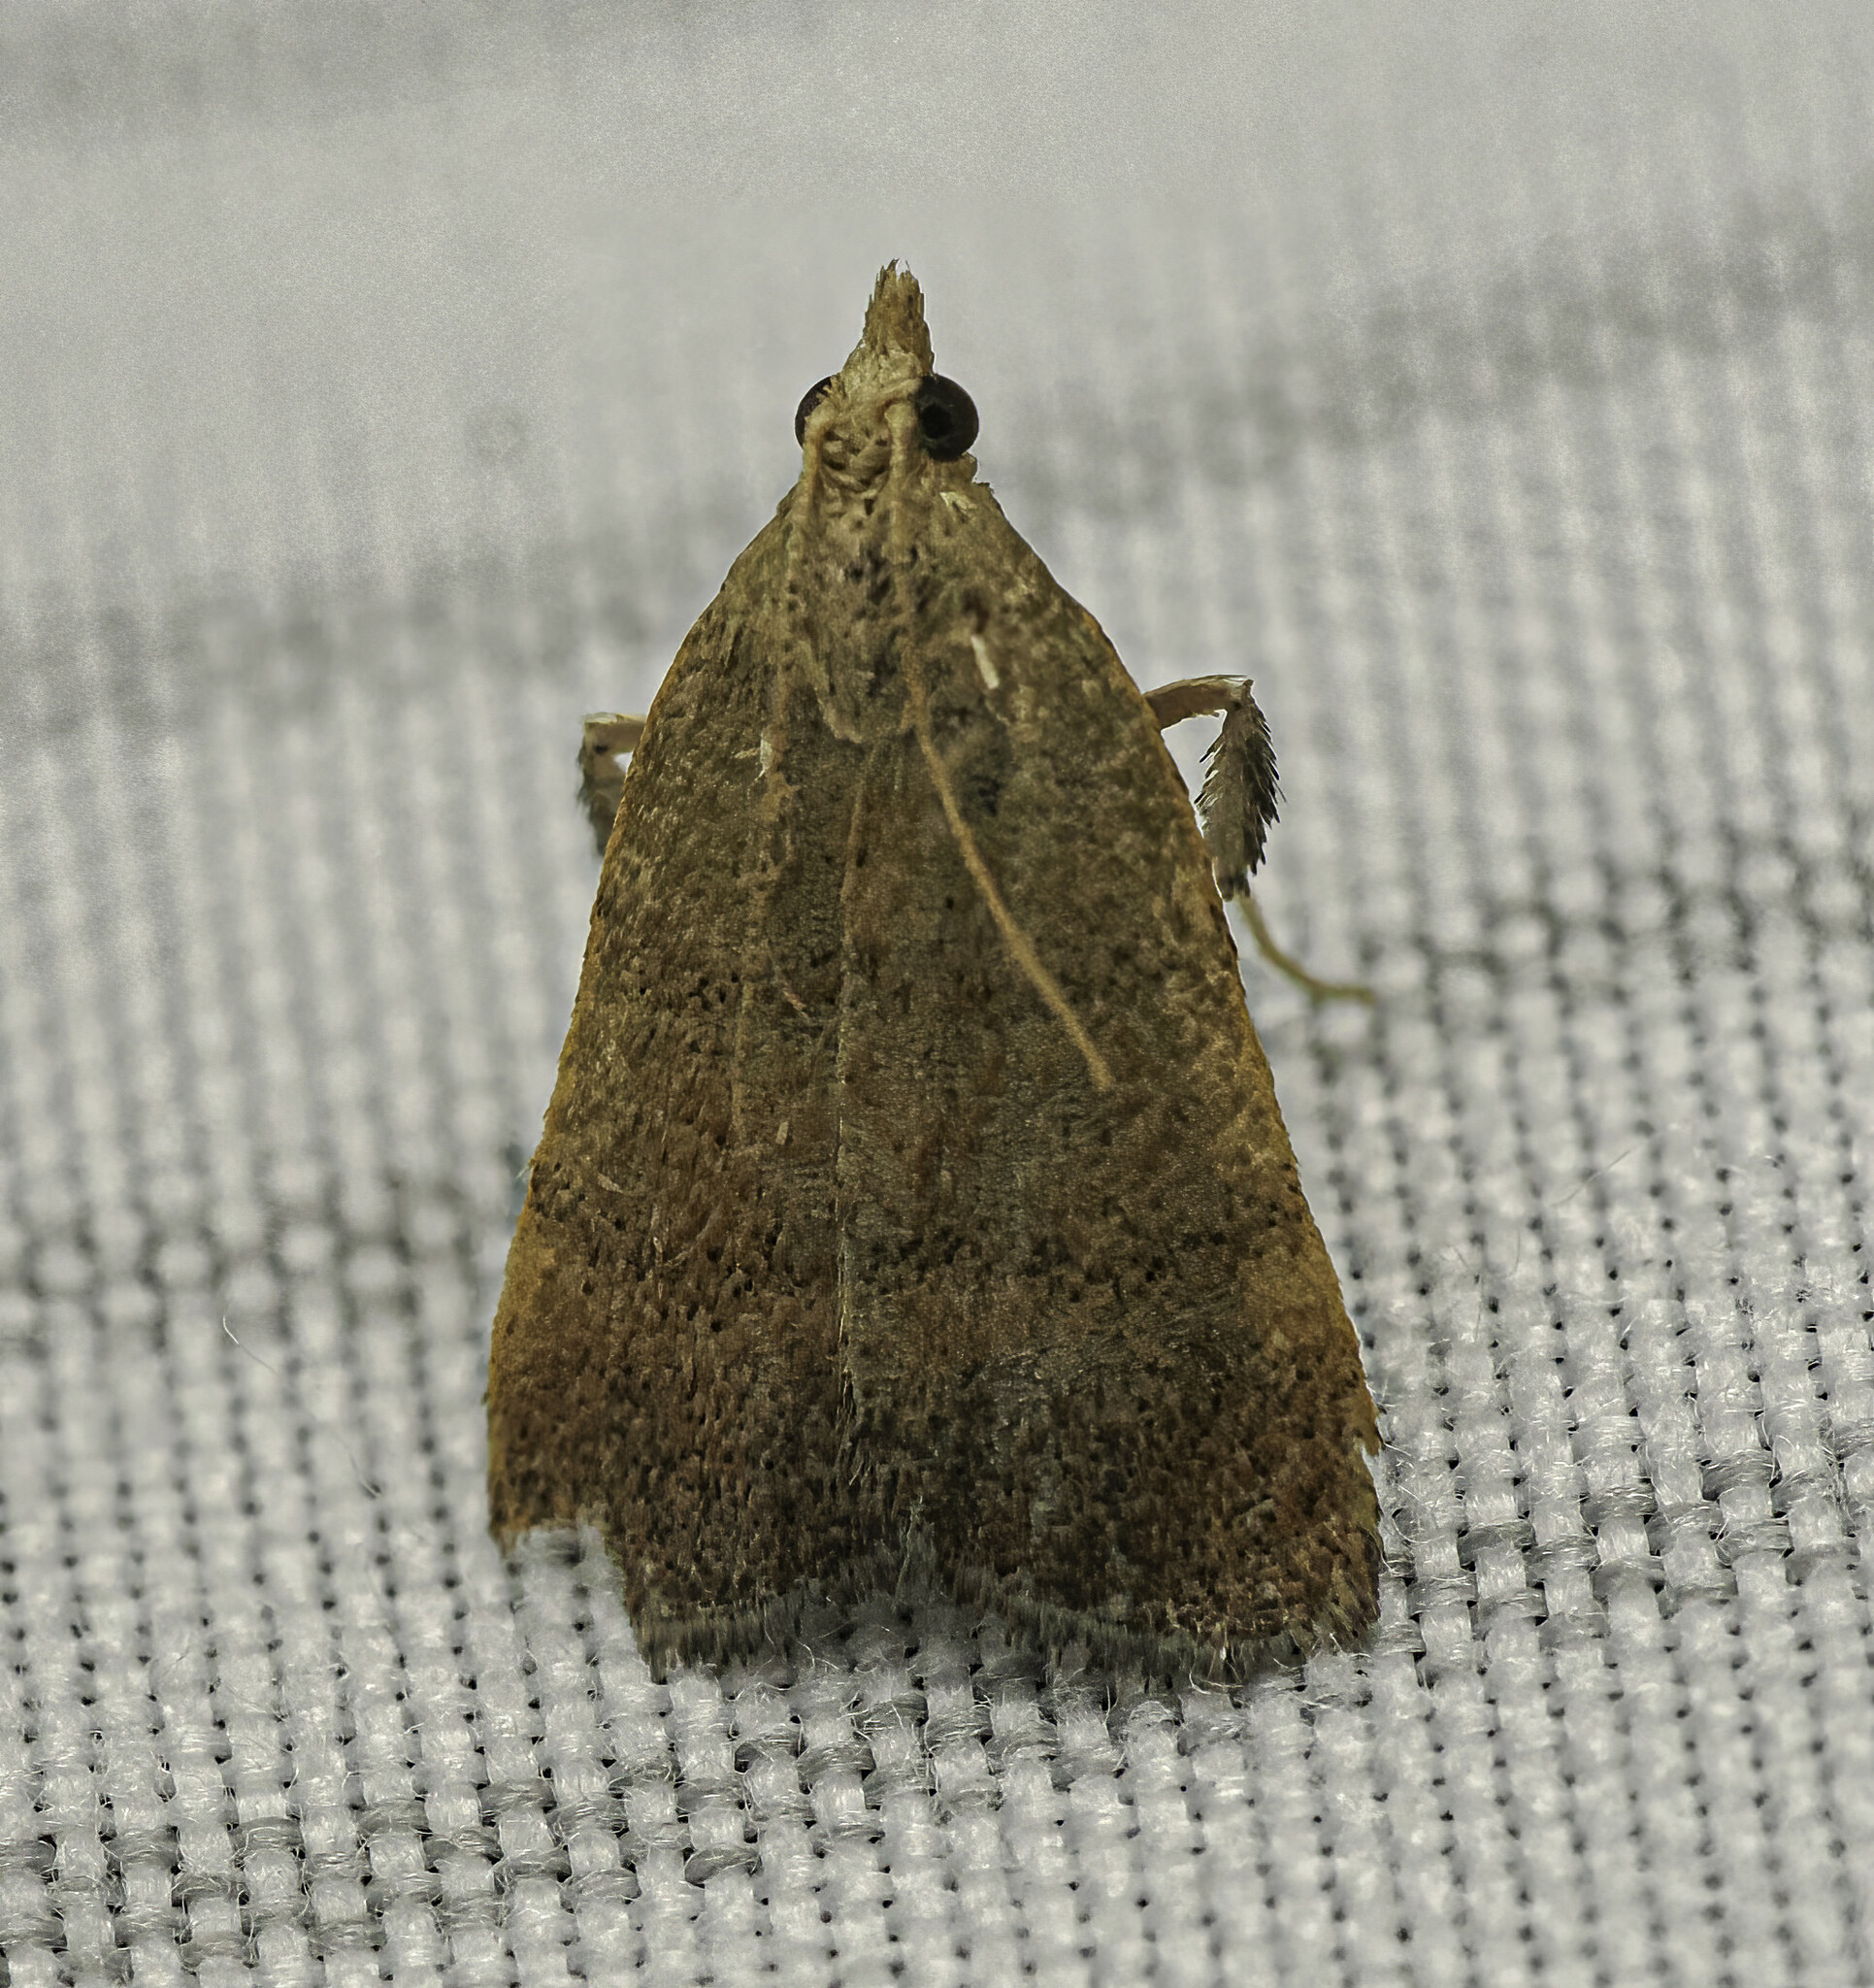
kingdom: Animalia
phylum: Arthropoda
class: Insecta
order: Lepidoptera
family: Pyralidae
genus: Condylolomia
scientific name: Condylolomia participialis
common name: Drab condylolomia moth
